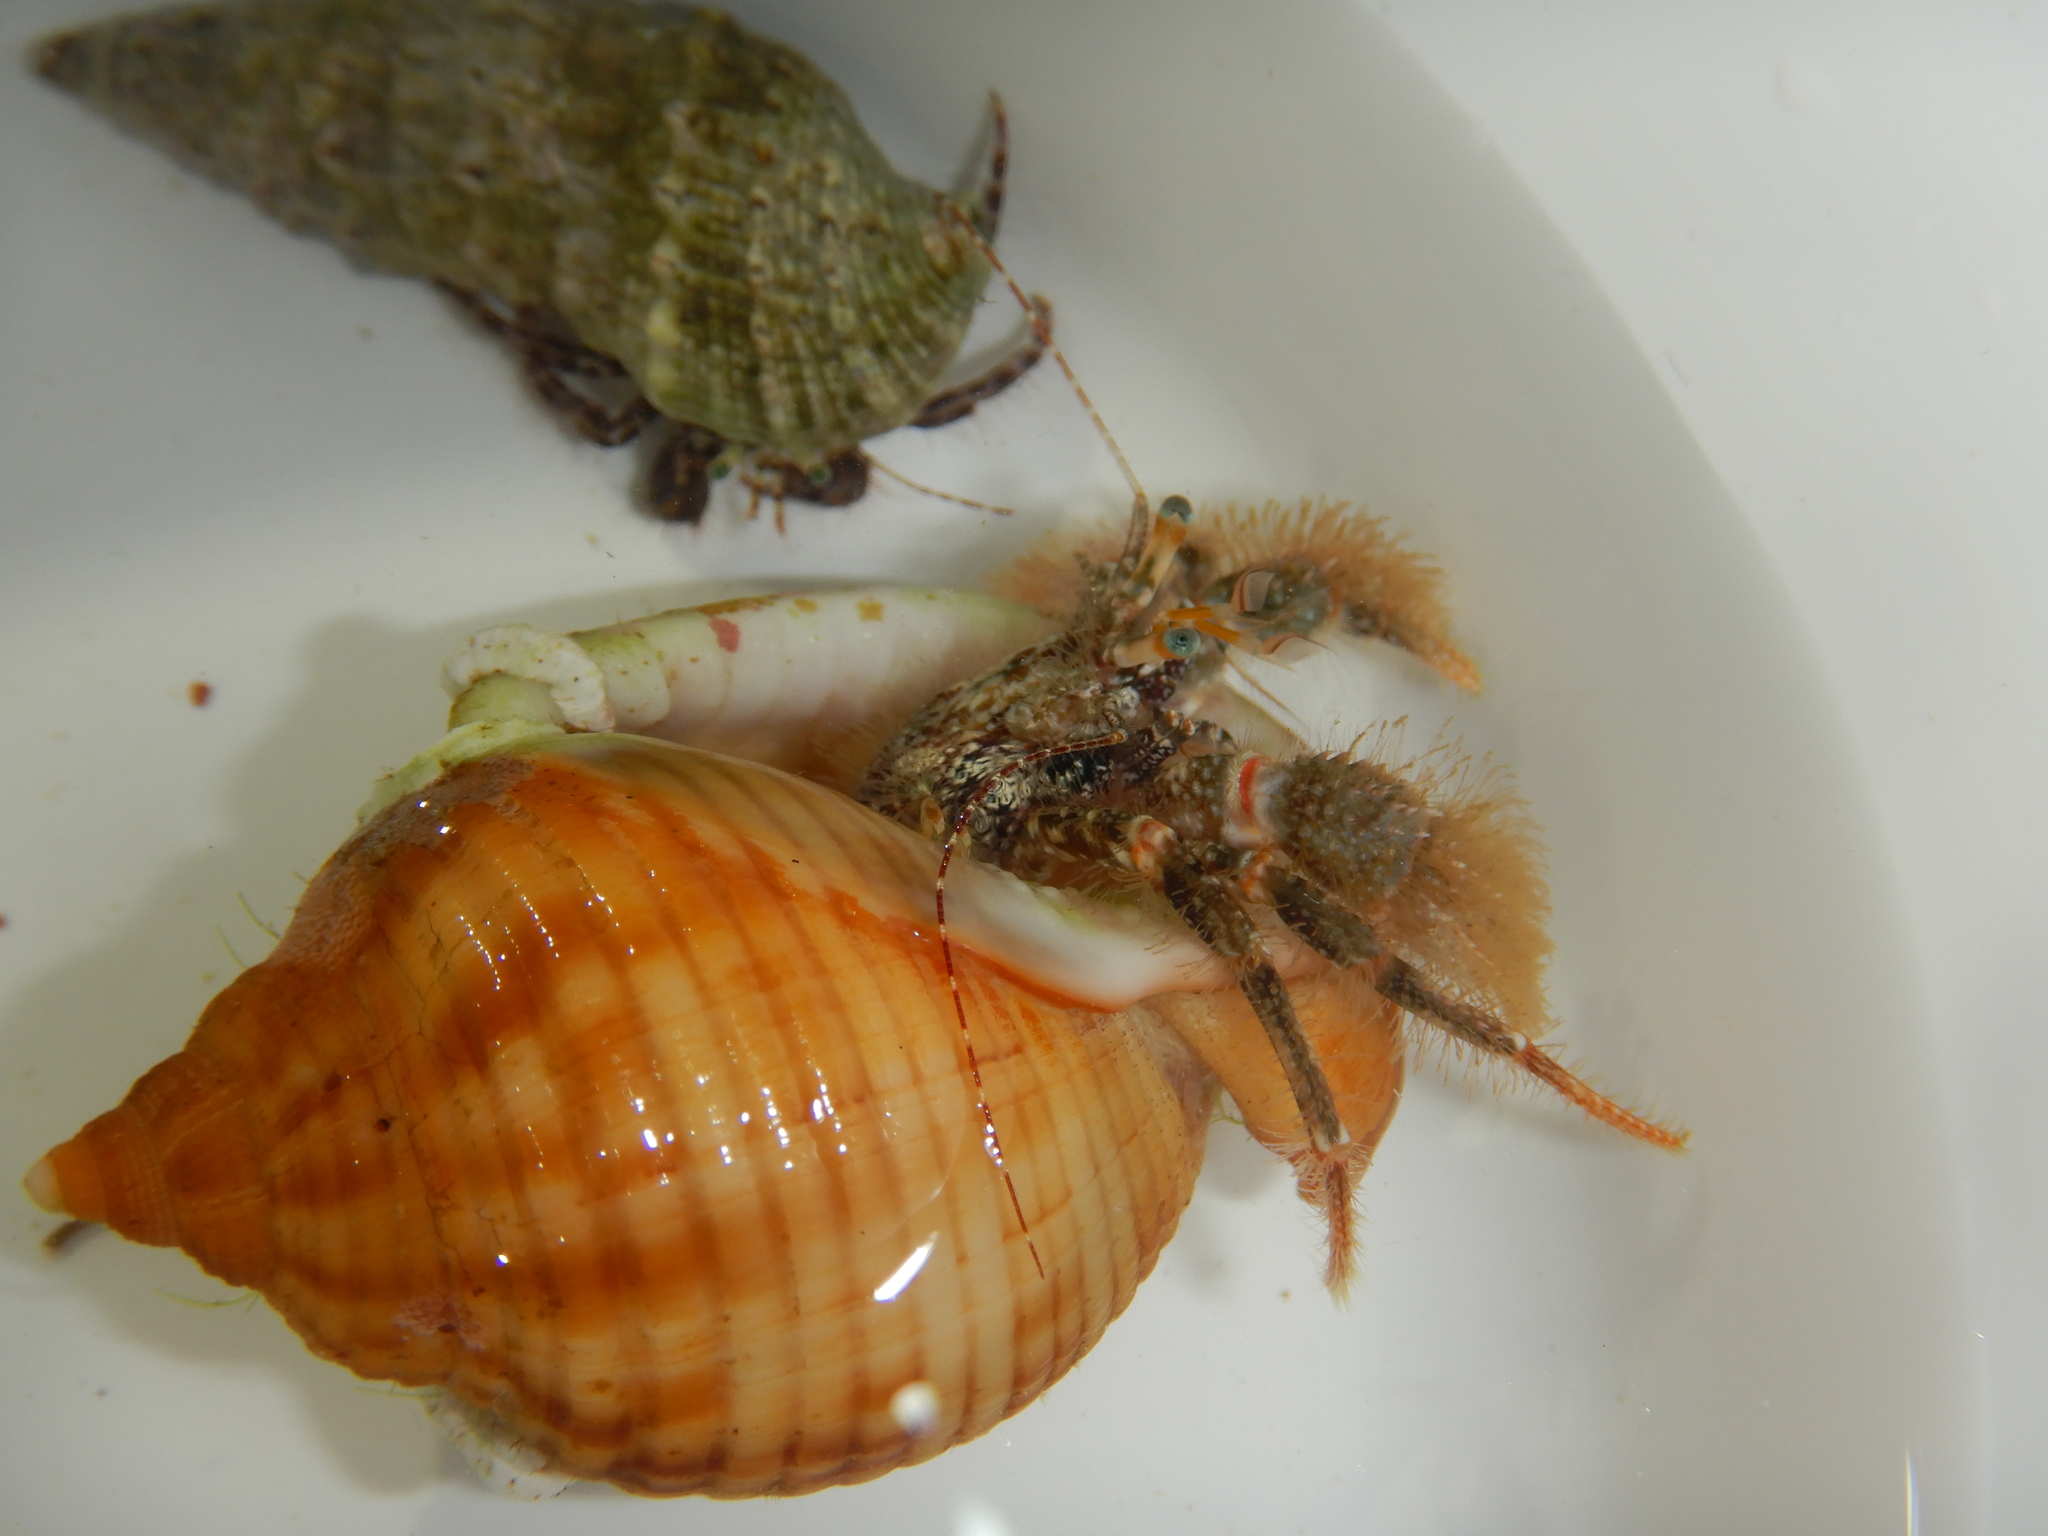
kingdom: Animalia
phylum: Arthropoda
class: Malacostraca
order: Decapoda
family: Paguridae
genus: Pagurus
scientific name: Pagurus cuanensis
